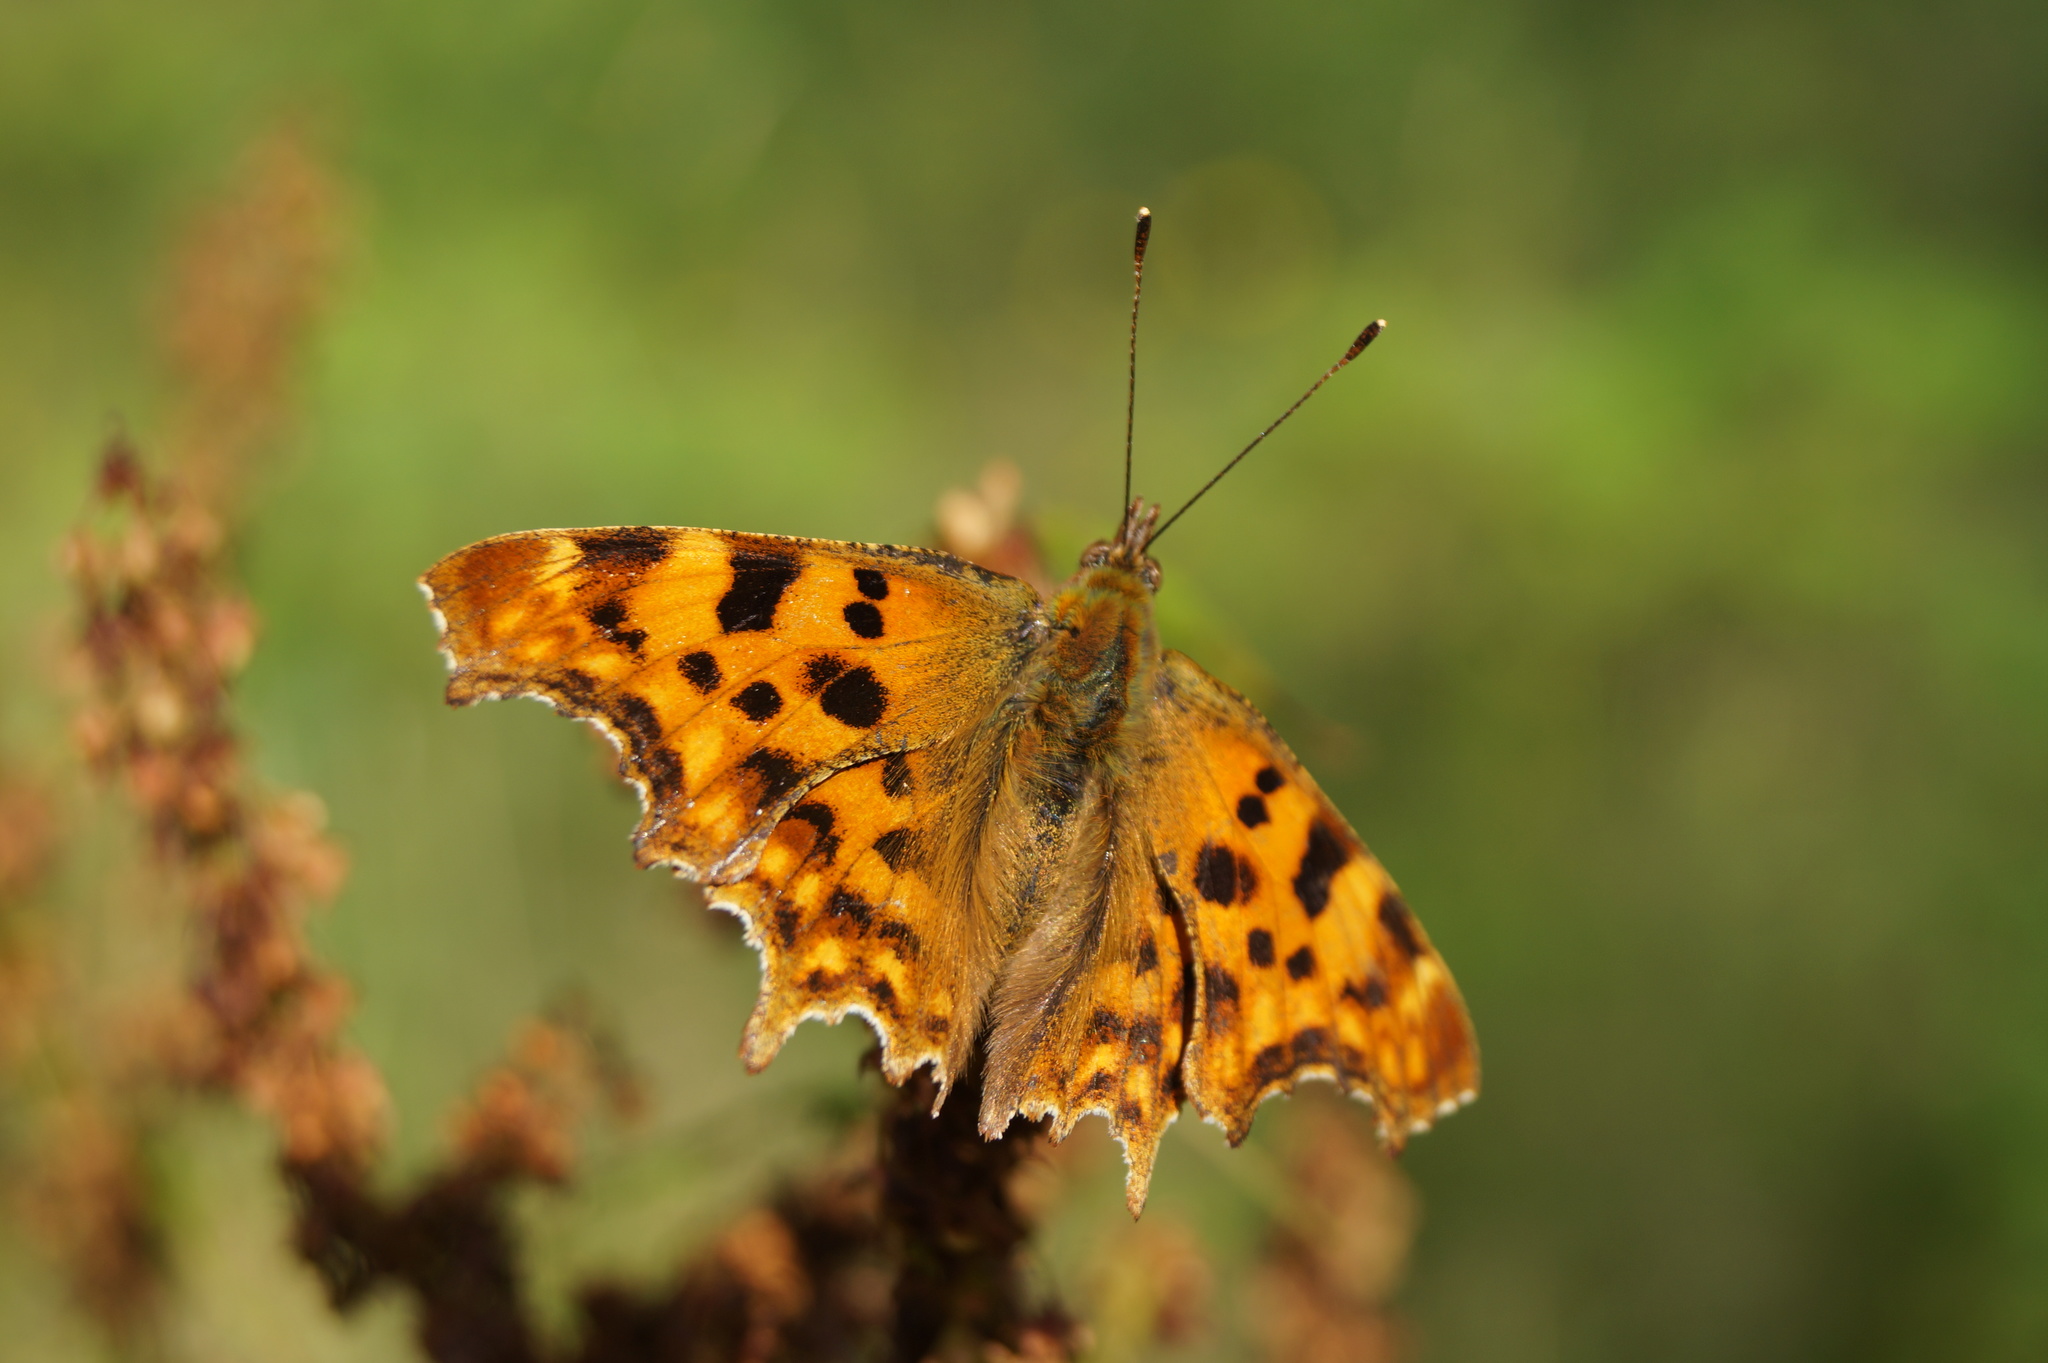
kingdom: Animalia
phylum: Arthropoda
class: Insecta
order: Lepidoptera
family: Nymphalidae
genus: Polygonia
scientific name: Polygonia c-album
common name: Comma
